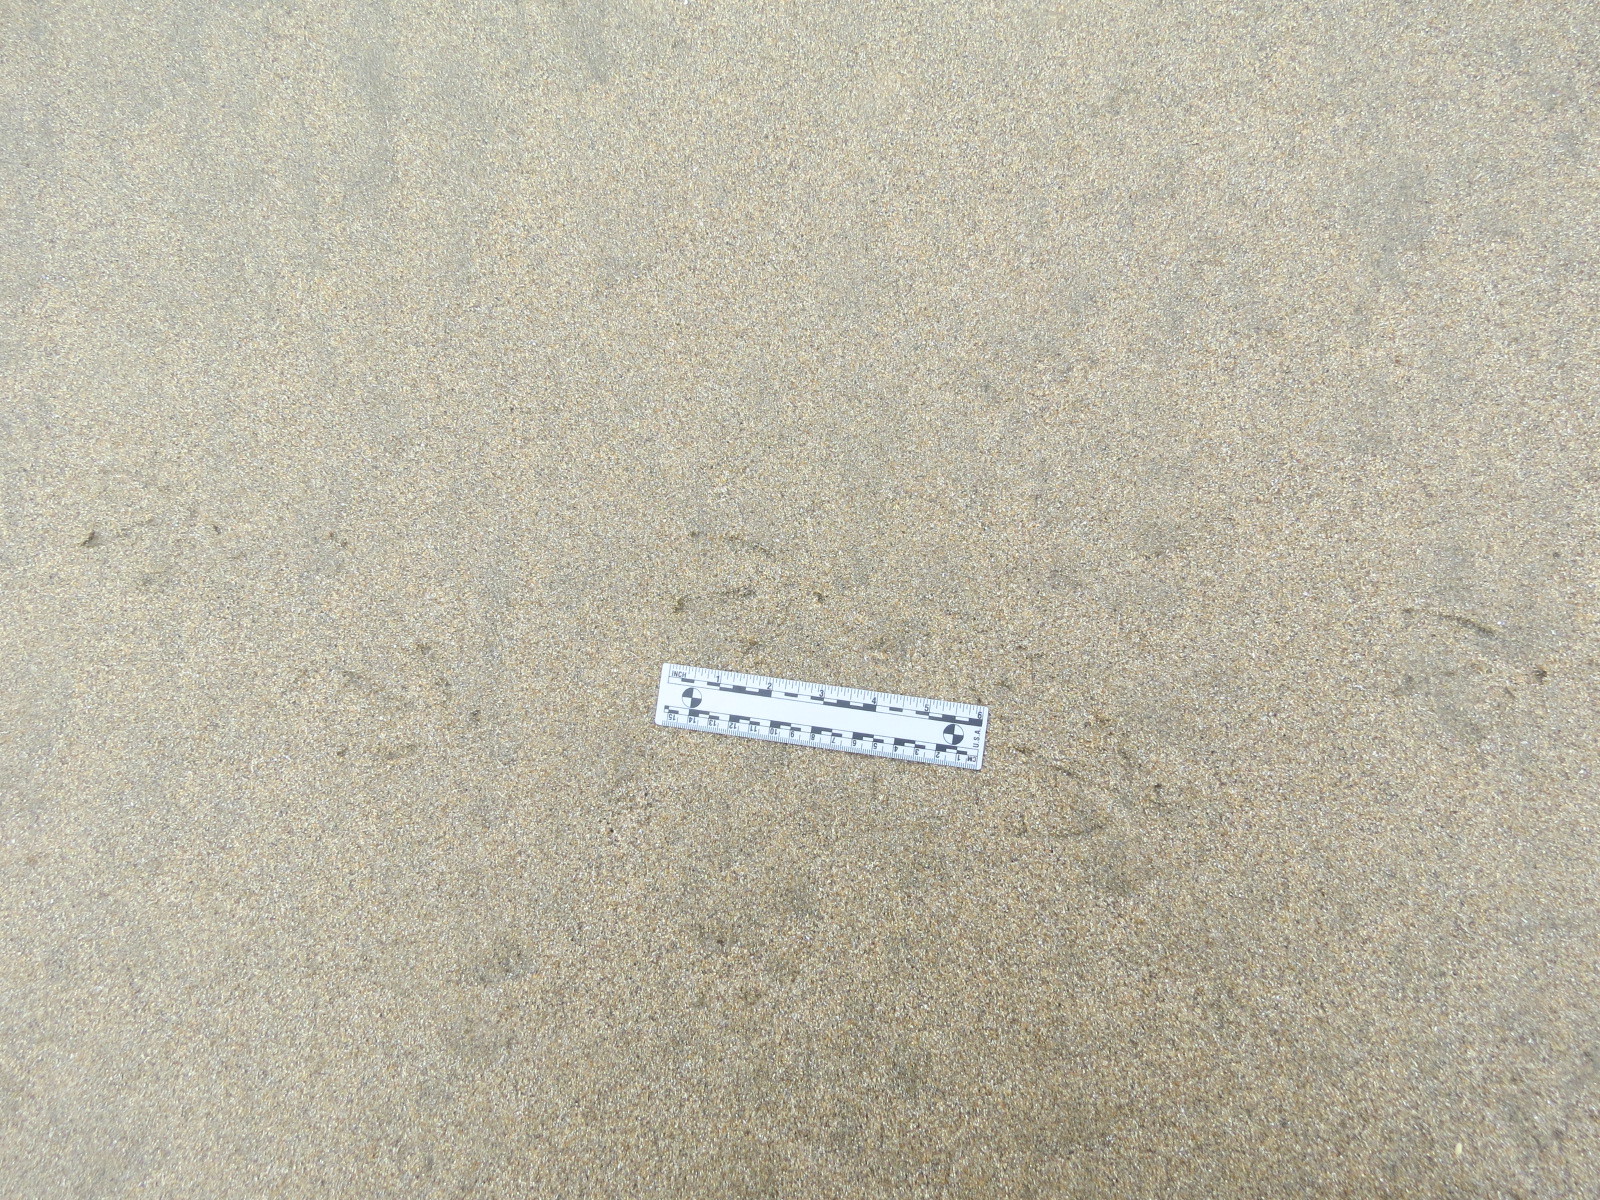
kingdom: Animalia
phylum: Chordata
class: Aves
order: Anseriformes
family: Anatidae
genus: Anas
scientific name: Anas platyrhynchos
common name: Mallard
